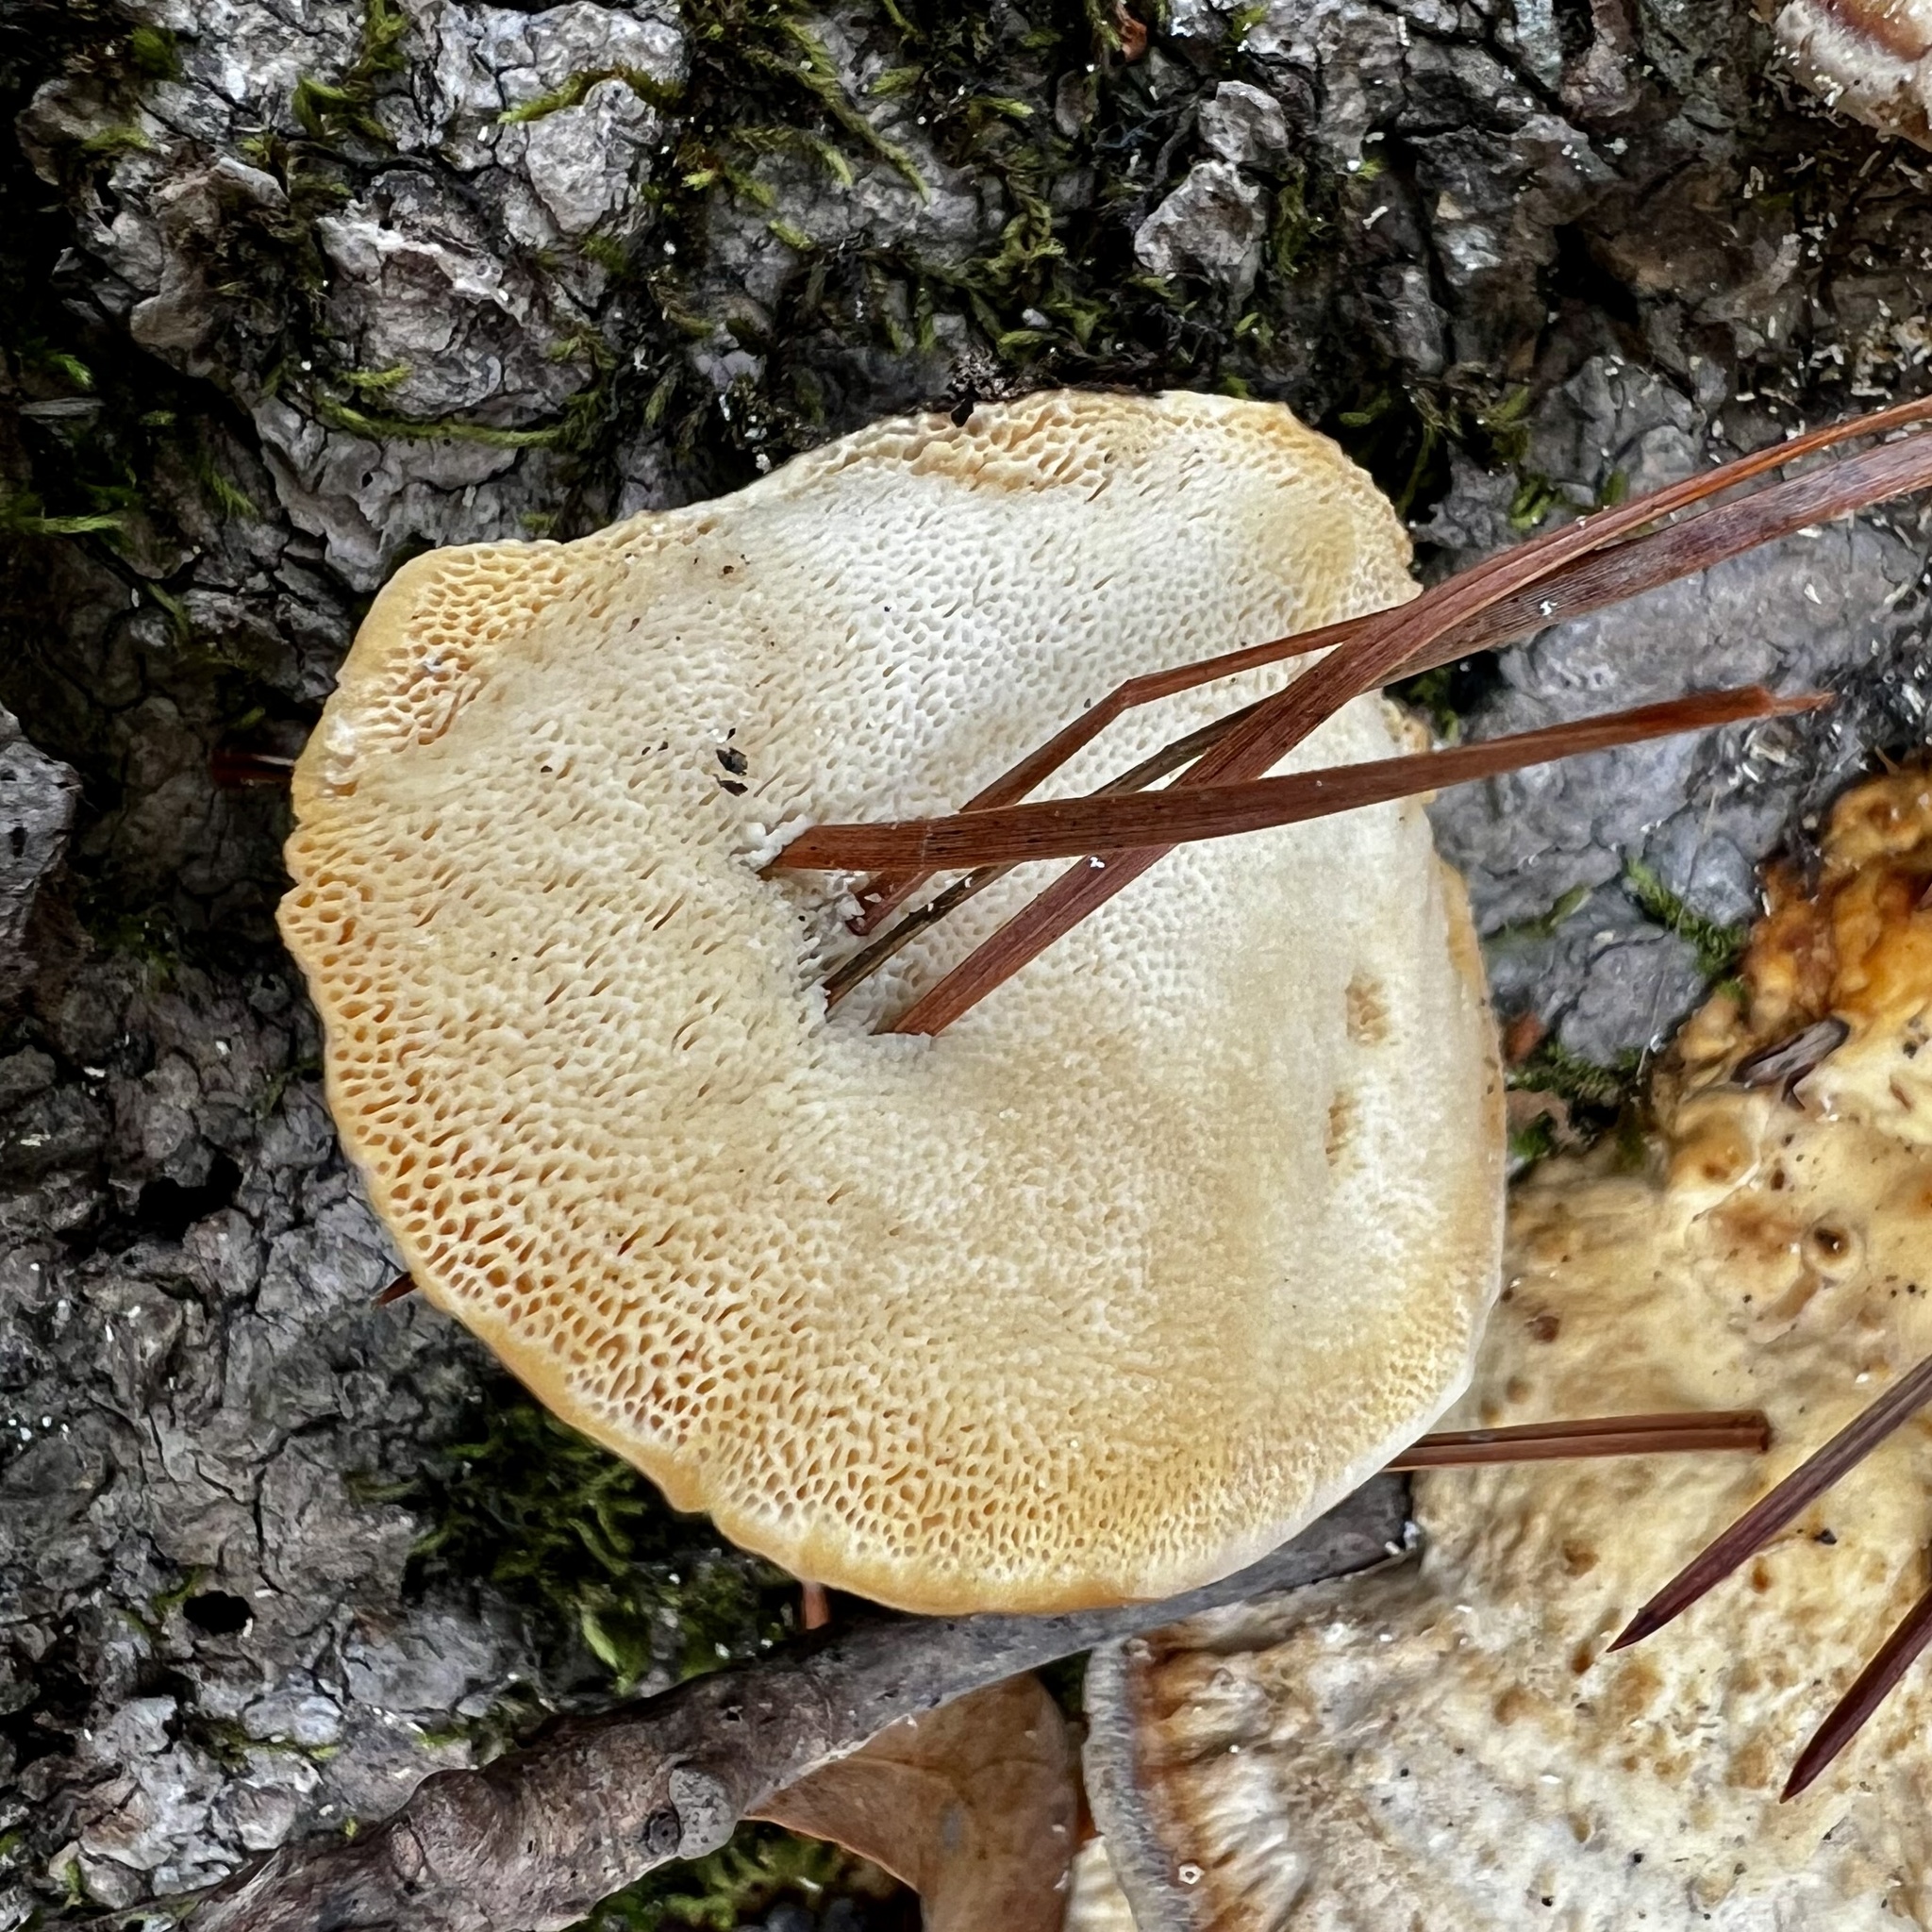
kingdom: Fungi
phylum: Basidiomycota
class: Agaricomycetes
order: Polyporales
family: Polyporaceae
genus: Trametes
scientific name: Trametes lactinea
